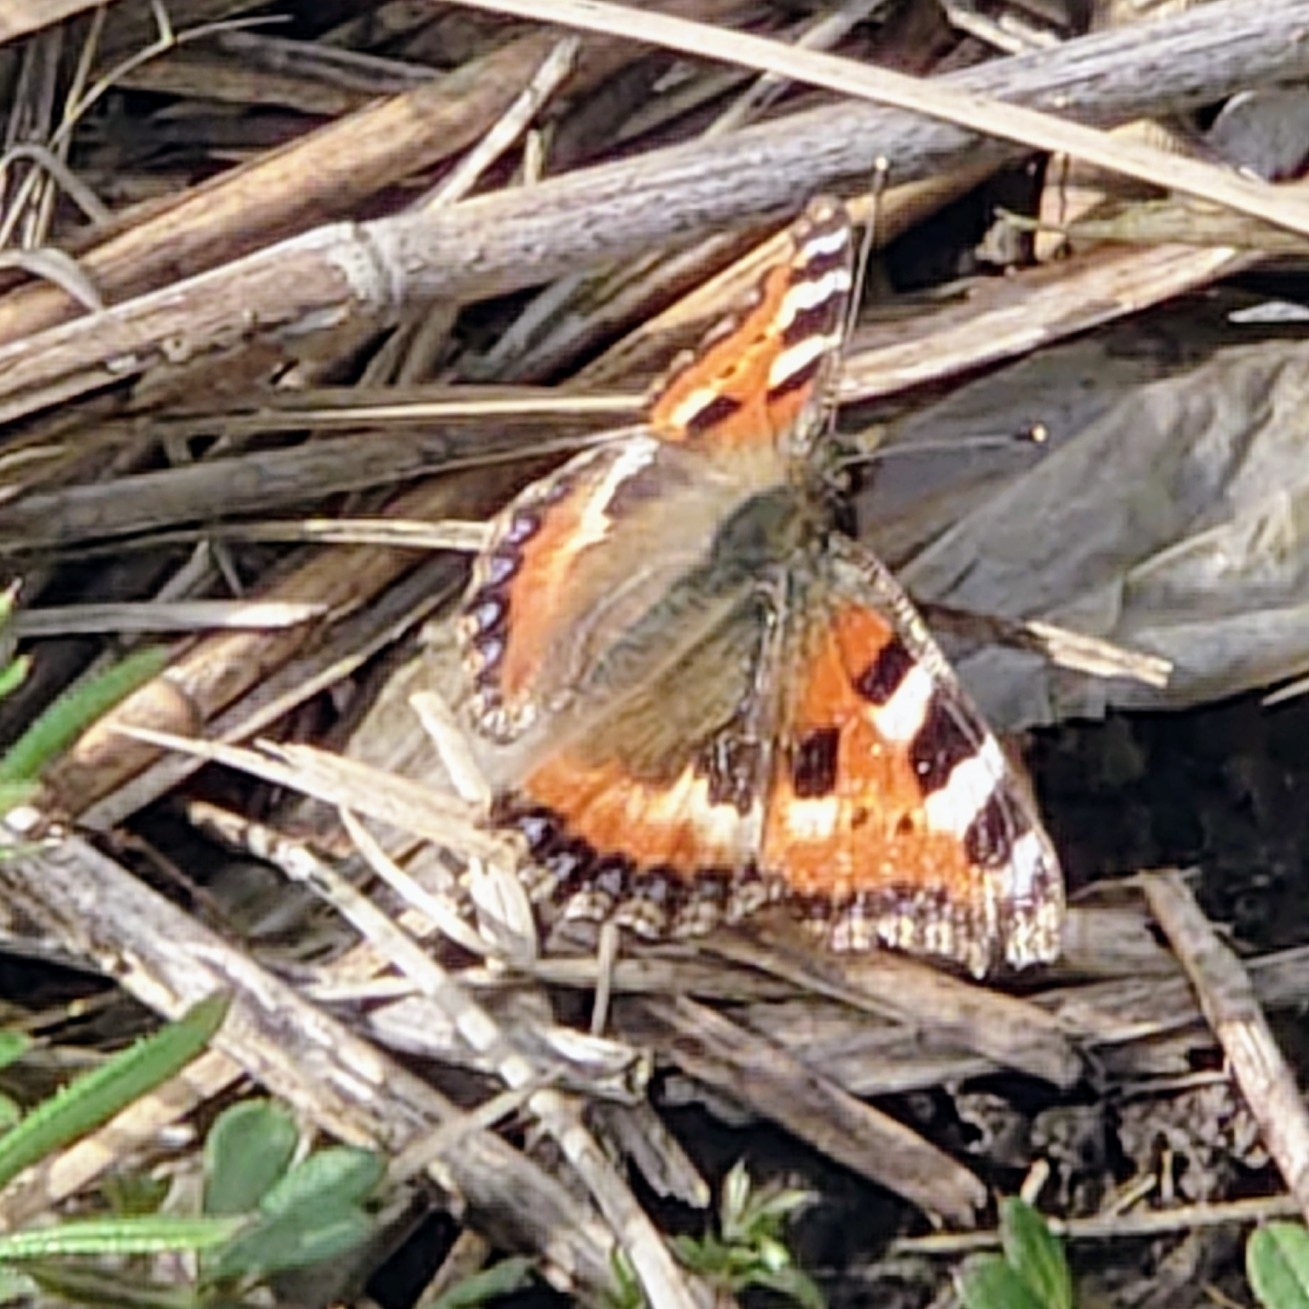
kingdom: Animalia
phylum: Arthropoda
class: Insecta
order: Lepidoptera
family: Nymphalidae
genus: Aglais
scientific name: Aglais urticae
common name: Small tortoiseshell
